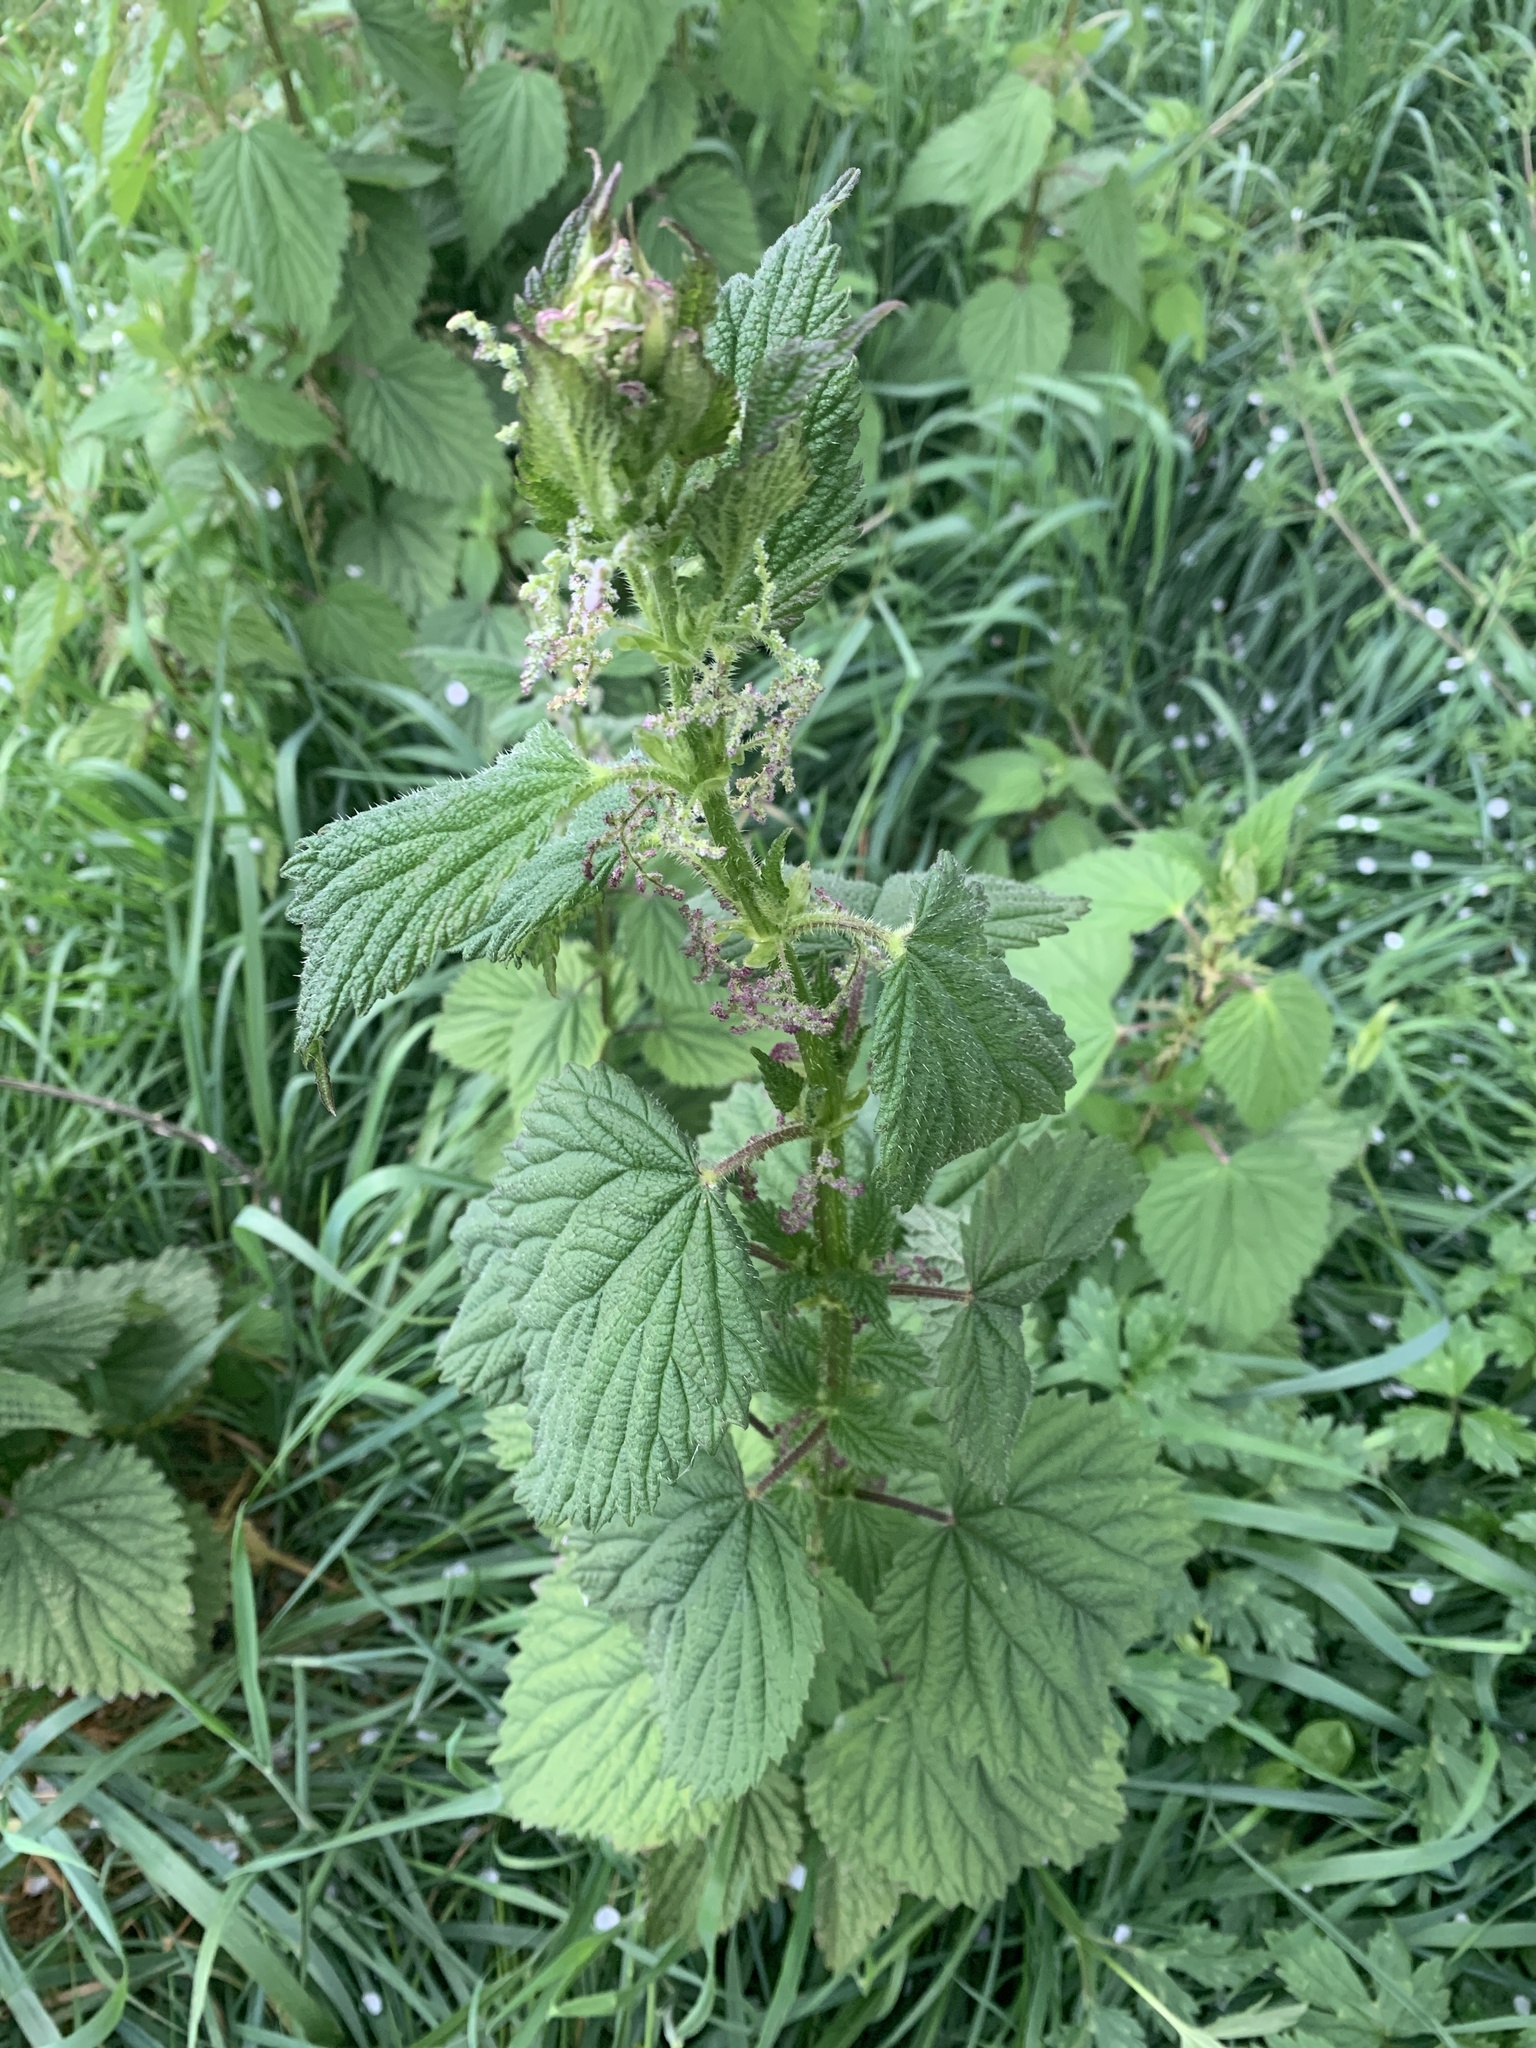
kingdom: Plantae
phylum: Tracheophyta
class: Magnoliopsida
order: Rosales
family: Urticaceae
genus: Urtica
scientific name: Urtica dioica
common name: Common nettle
